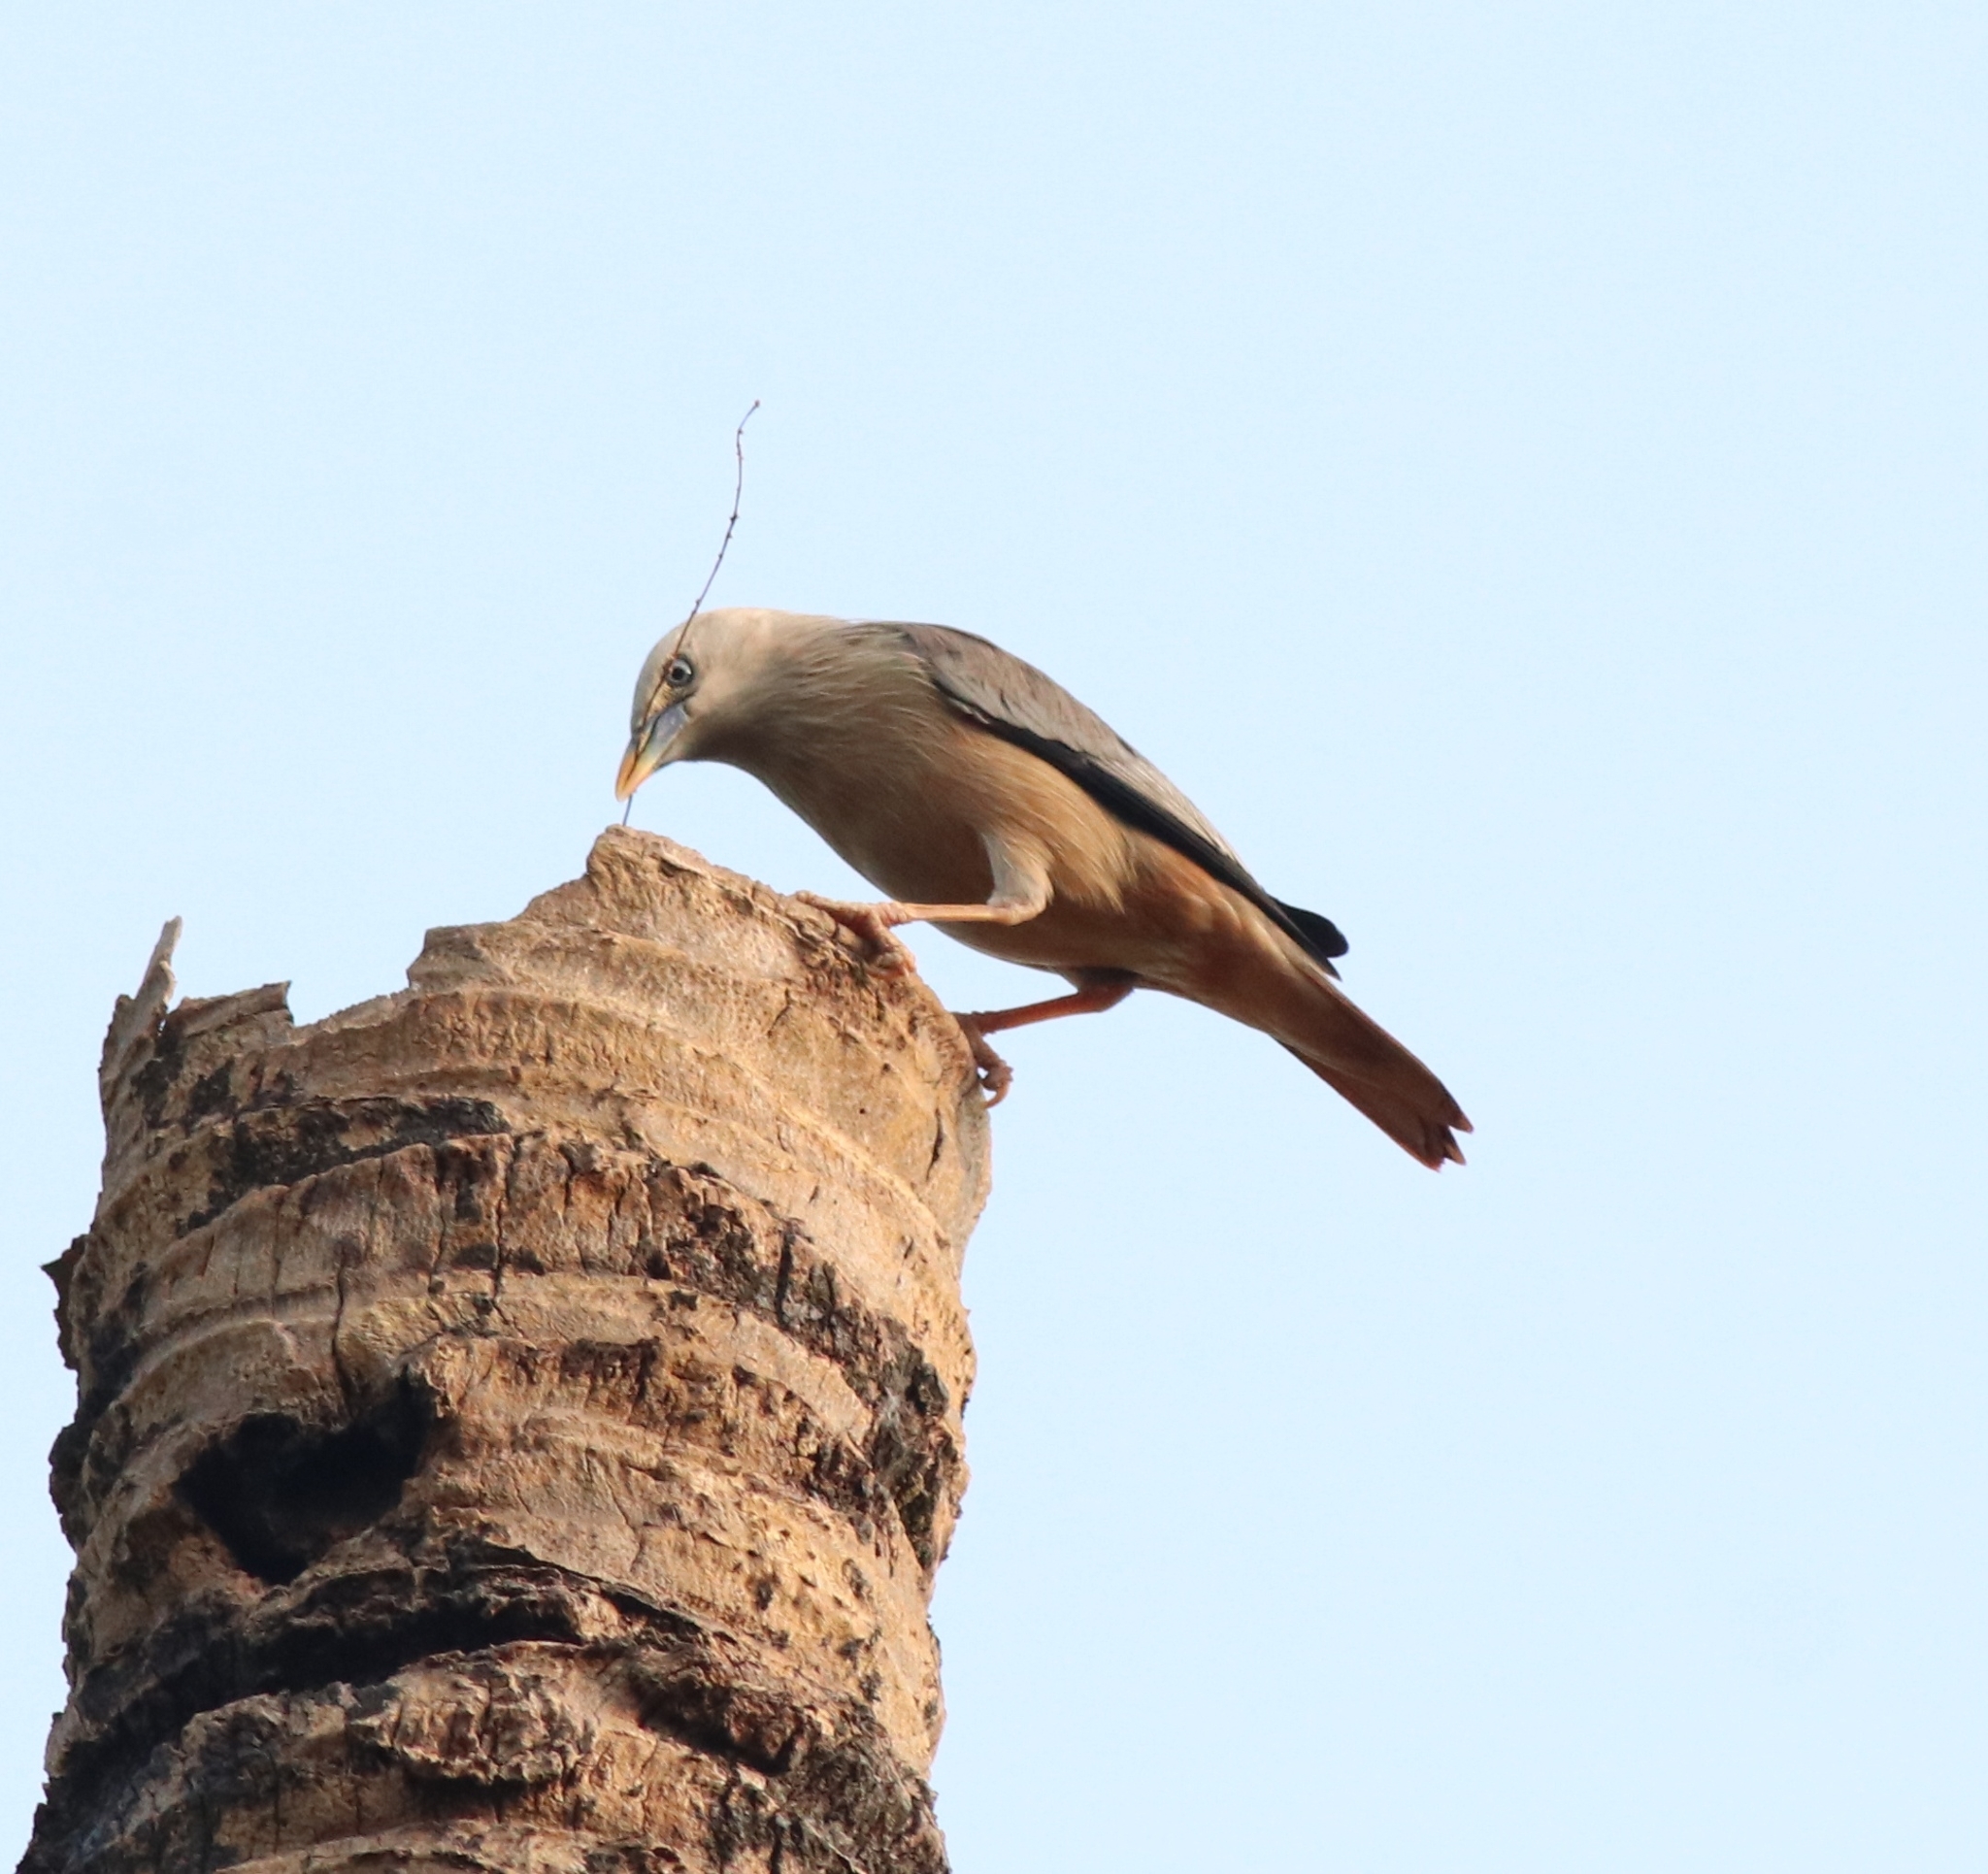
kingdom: Animalia
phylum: Chordata
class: Aves
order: Passeriformes
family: Sturnidae
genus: Sturnia
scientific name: Sturnia blythii
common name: Malabar starling
